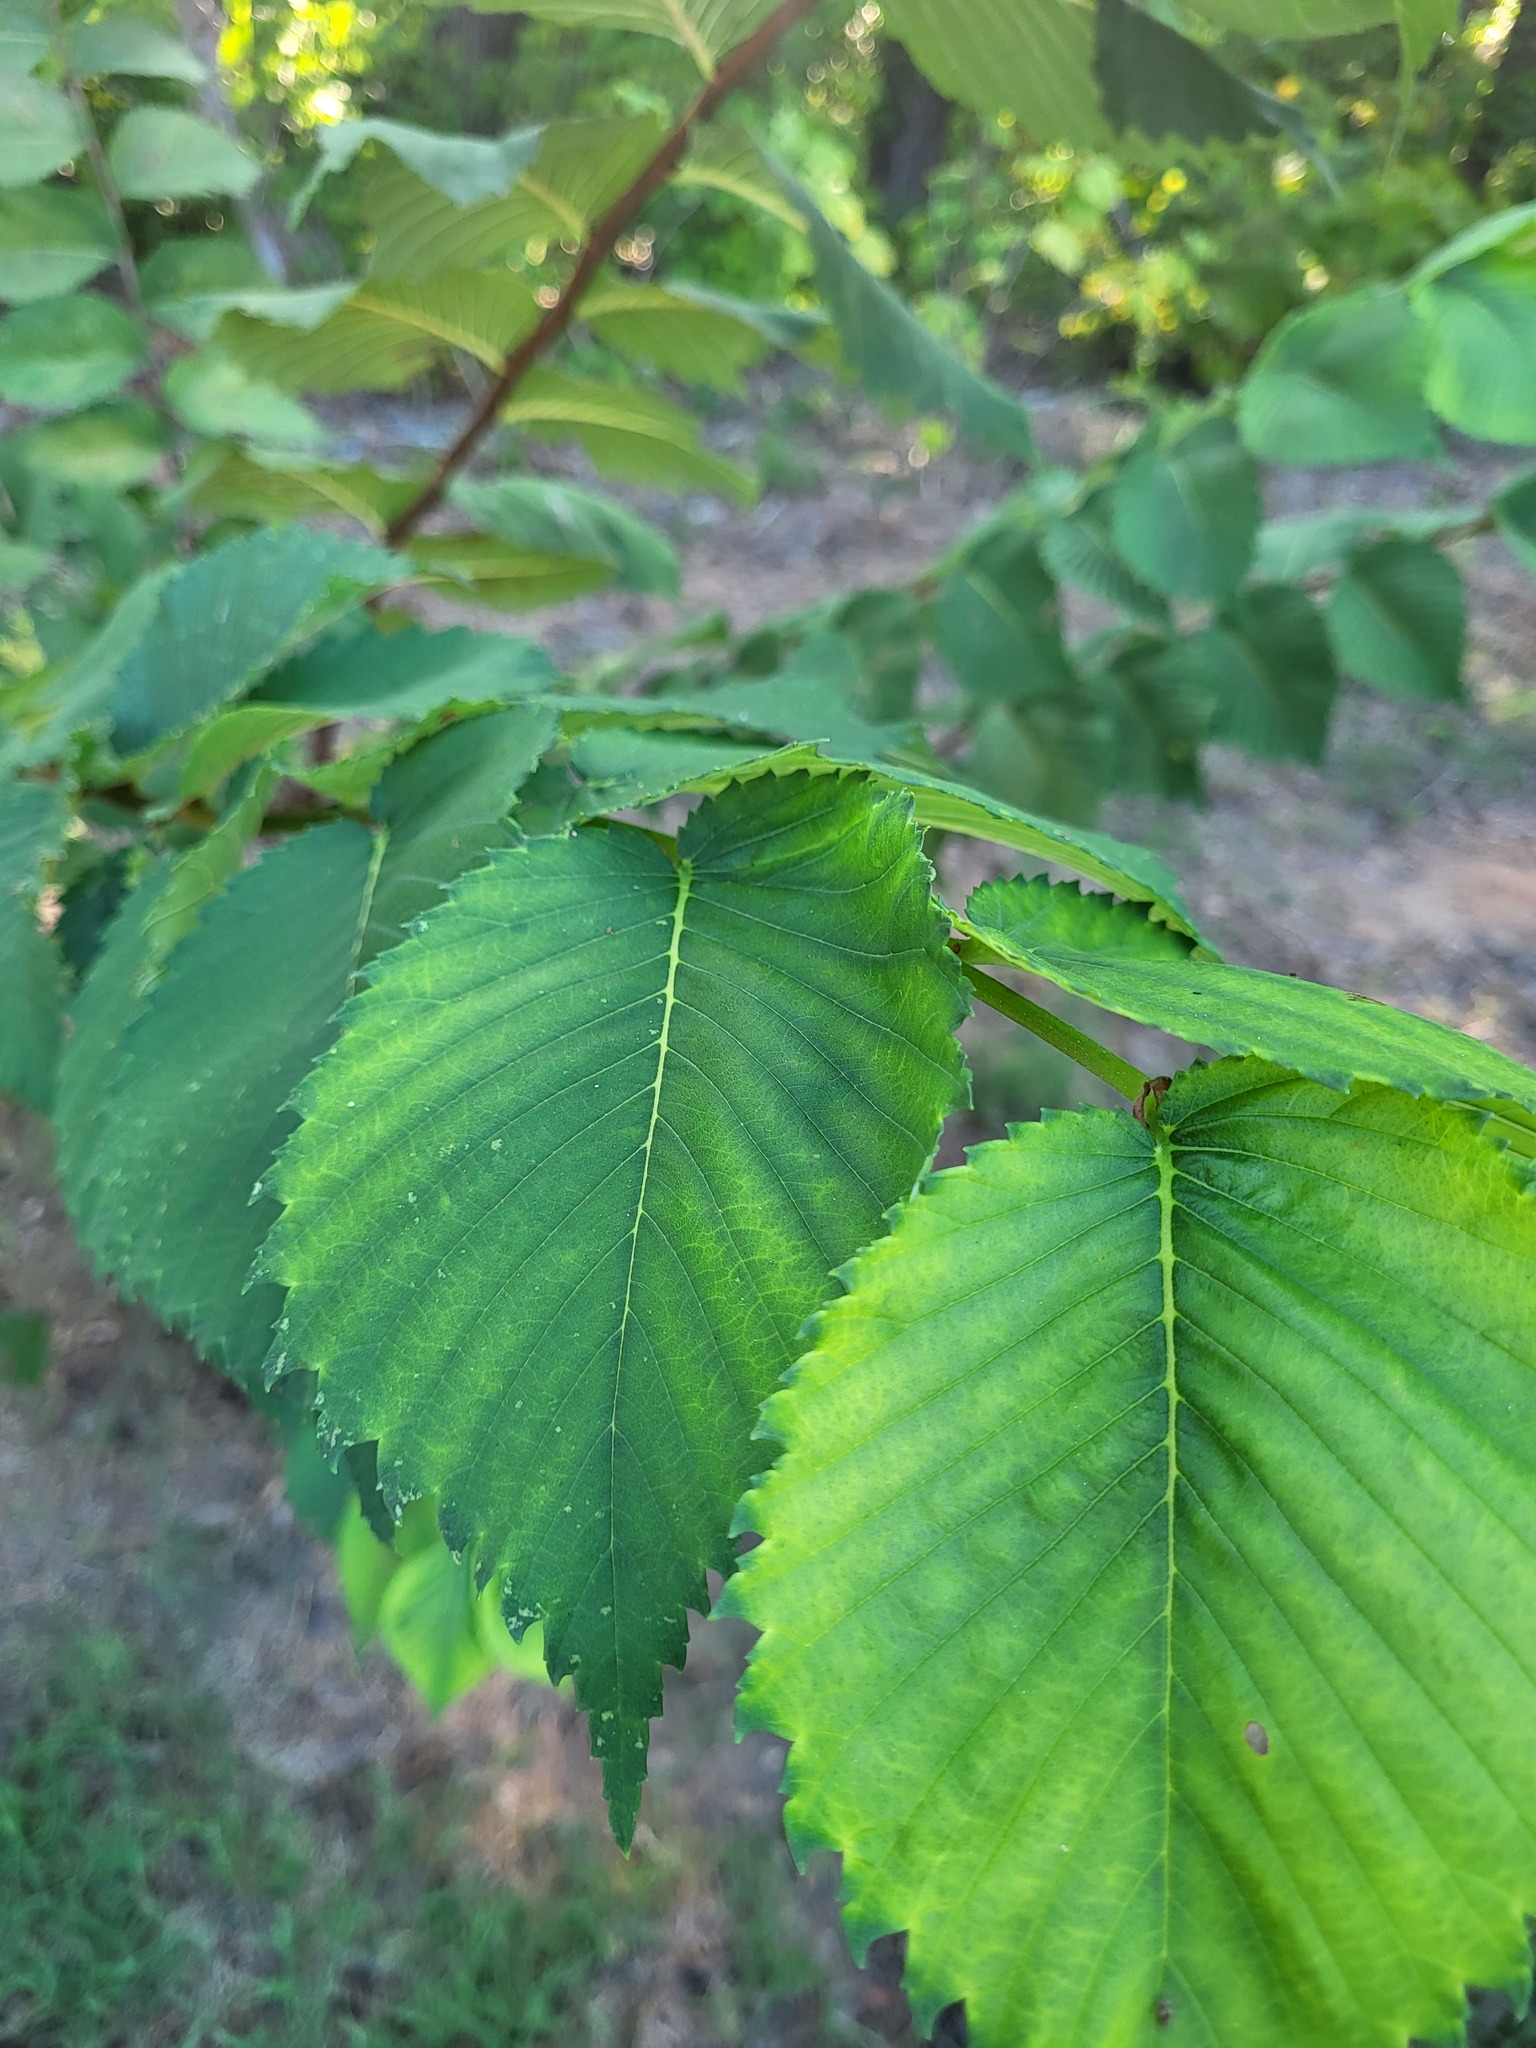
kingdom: Plantae
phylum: Tracheophyta
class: Magnoliopsida
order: Rosales
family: Ulmaceae
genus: Ulmus
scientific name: Ulmus americana
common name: American elm
